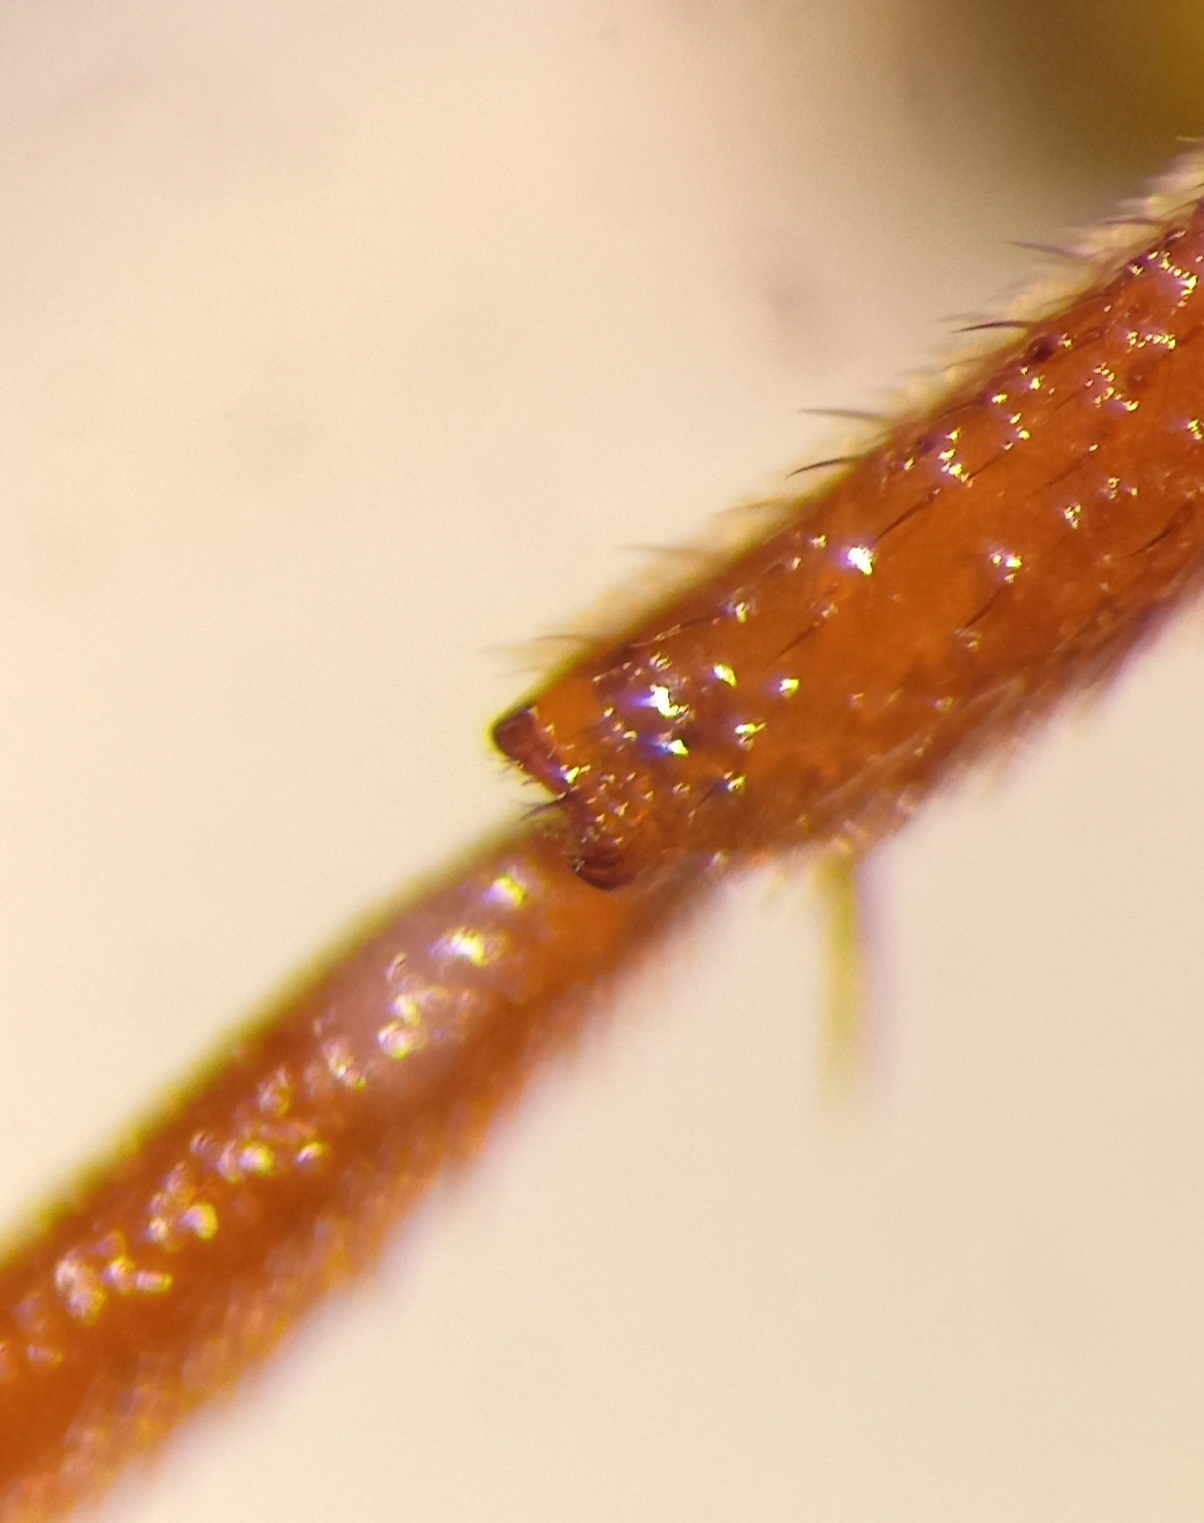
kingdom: Animalia
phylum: Arthropoda
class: Insecta
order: Hymenoptera
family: Apidae
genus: Nomada
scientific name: Nomada fucata
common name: Painted nomad bee
